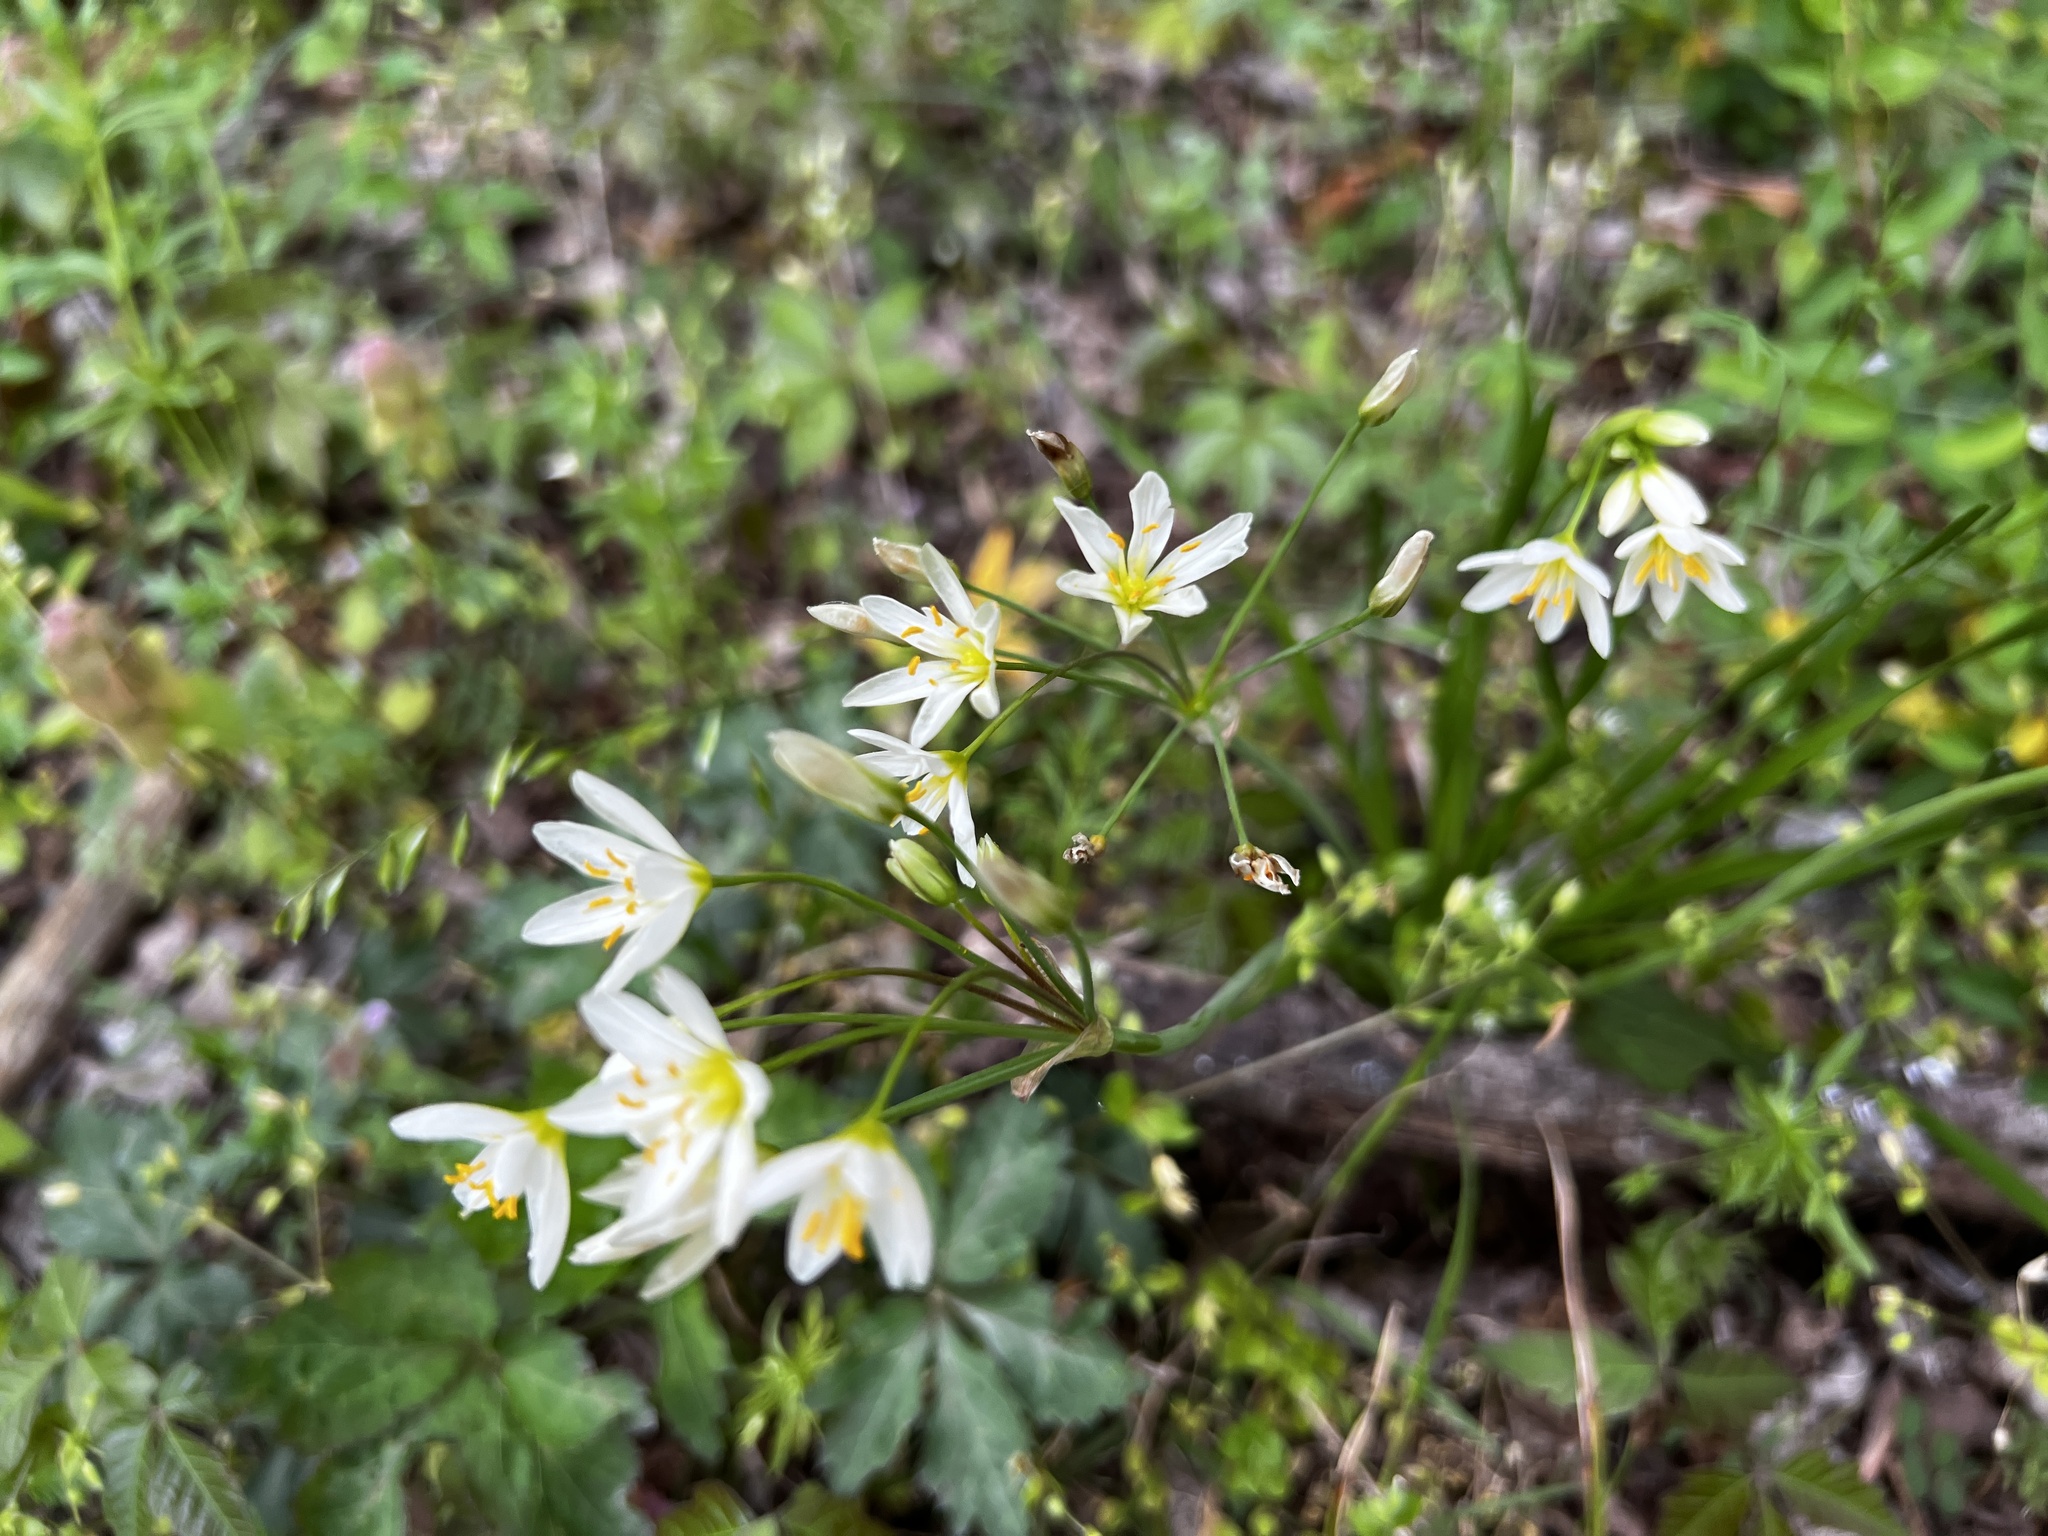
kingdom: Plantae
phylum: Tracheophyta
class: Liliopsida
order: Asparagales
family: Amaryllidaceae
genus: Nothoscordum
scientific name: Nothoscordum bivalve
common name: Crow-poison
